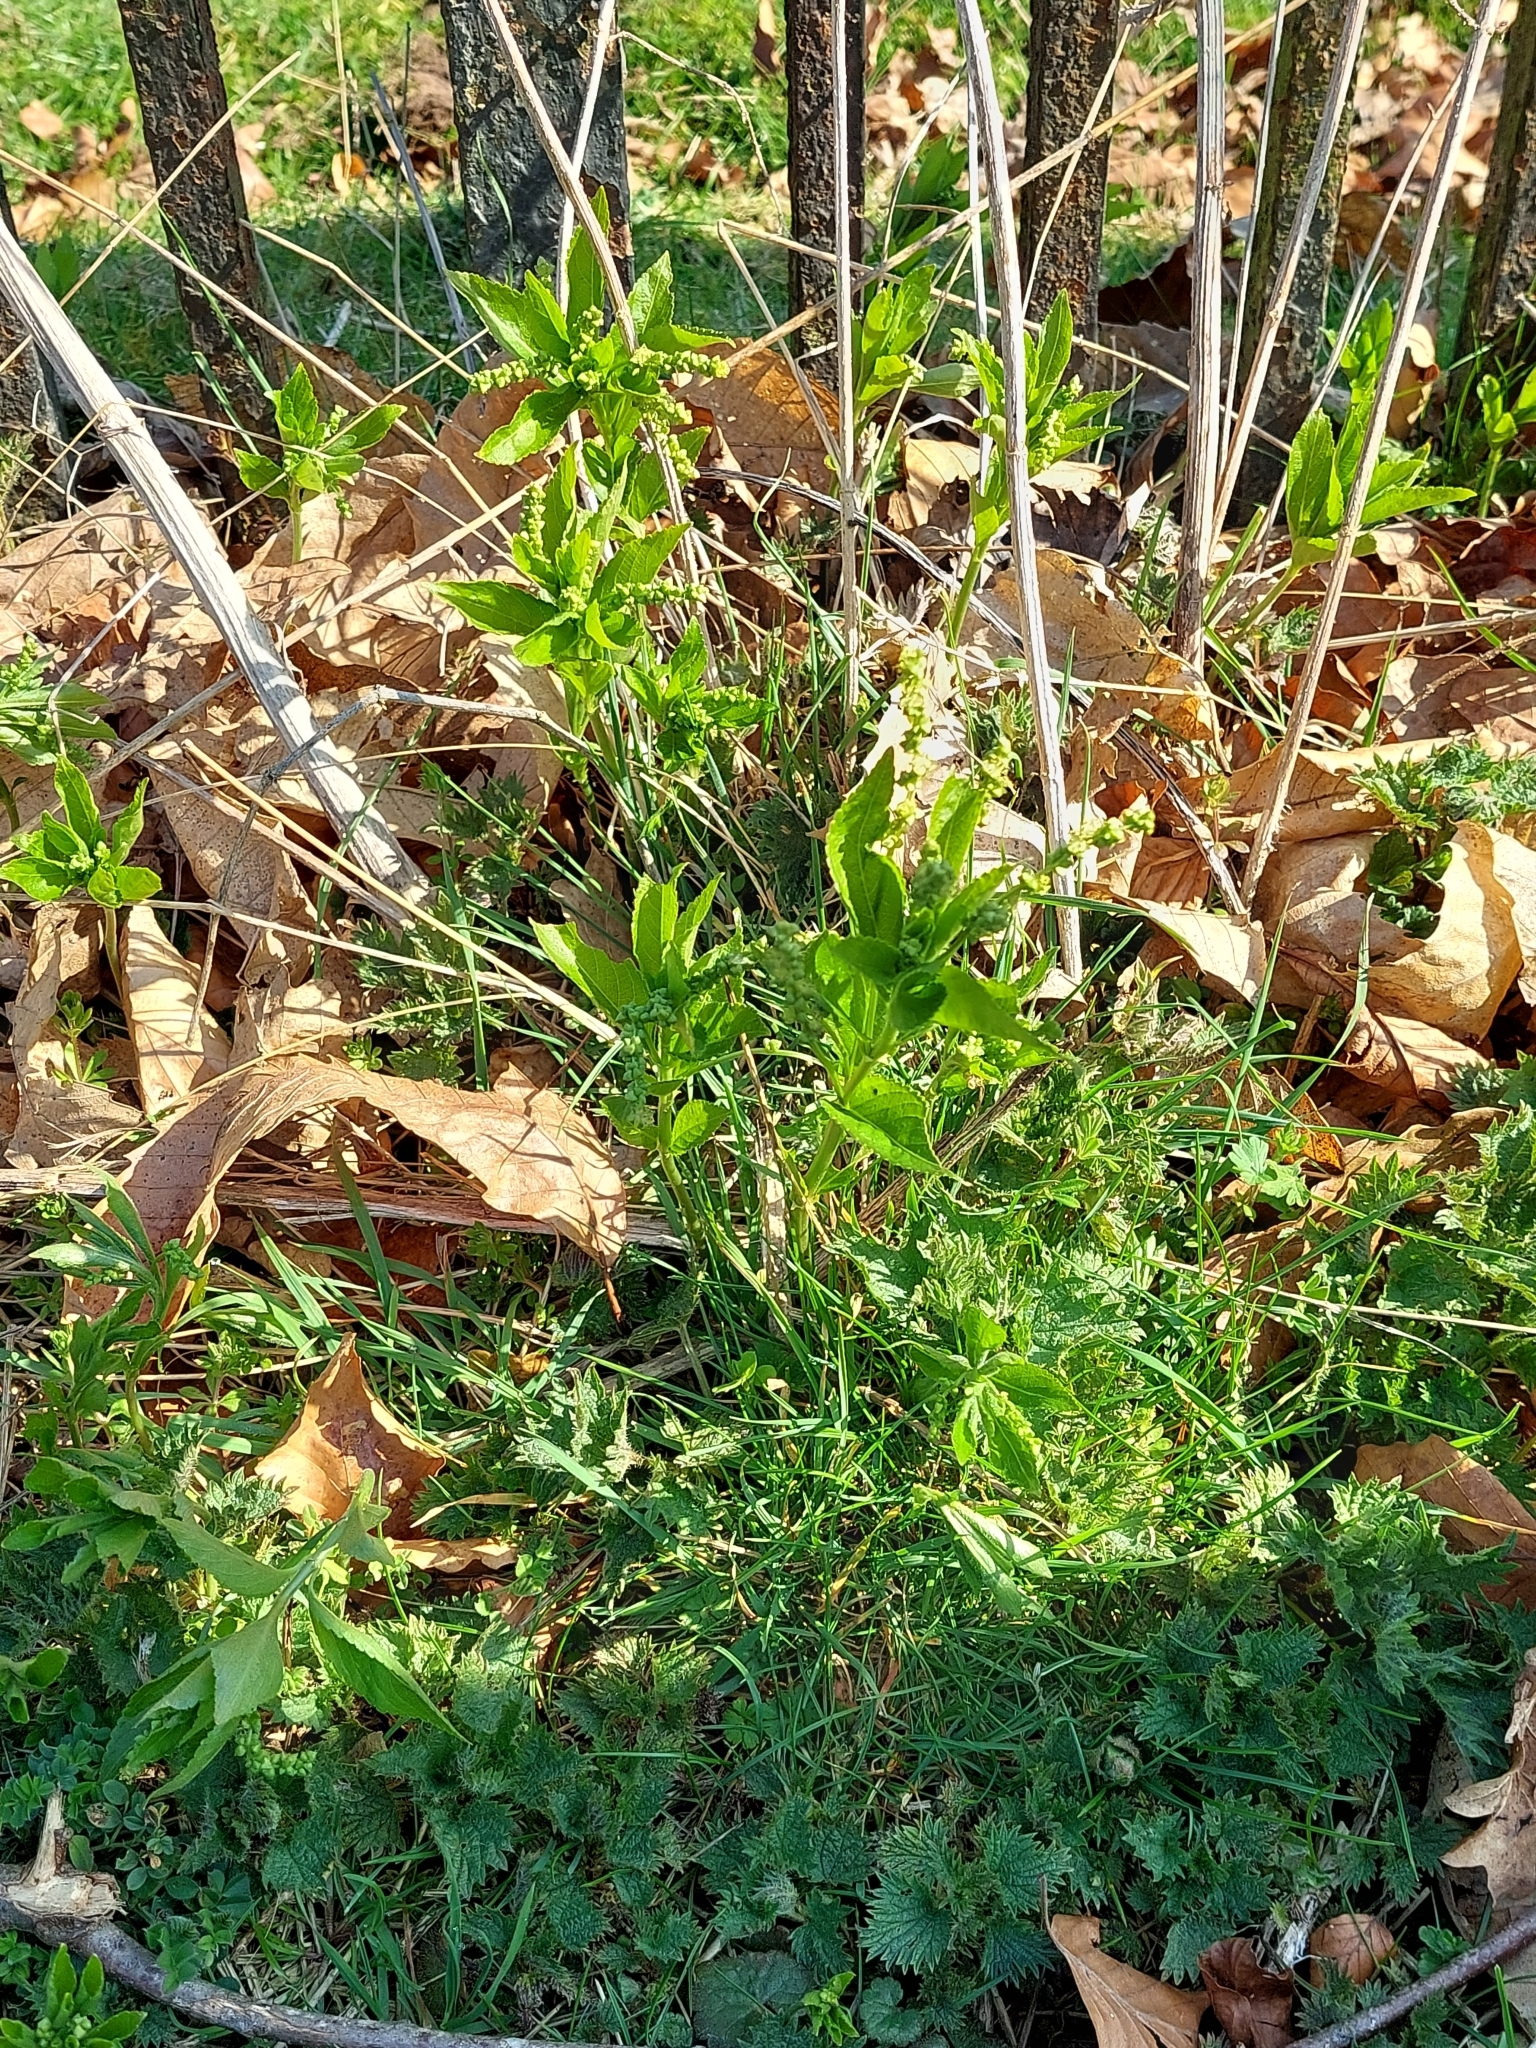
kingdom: Plantae
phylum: Tracheophyta
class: Magnoliopsida
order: Malpighiales
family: Euphorbiaceae
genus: Mercurialis
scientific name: Mercurialis perennis
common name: Dog mercury
